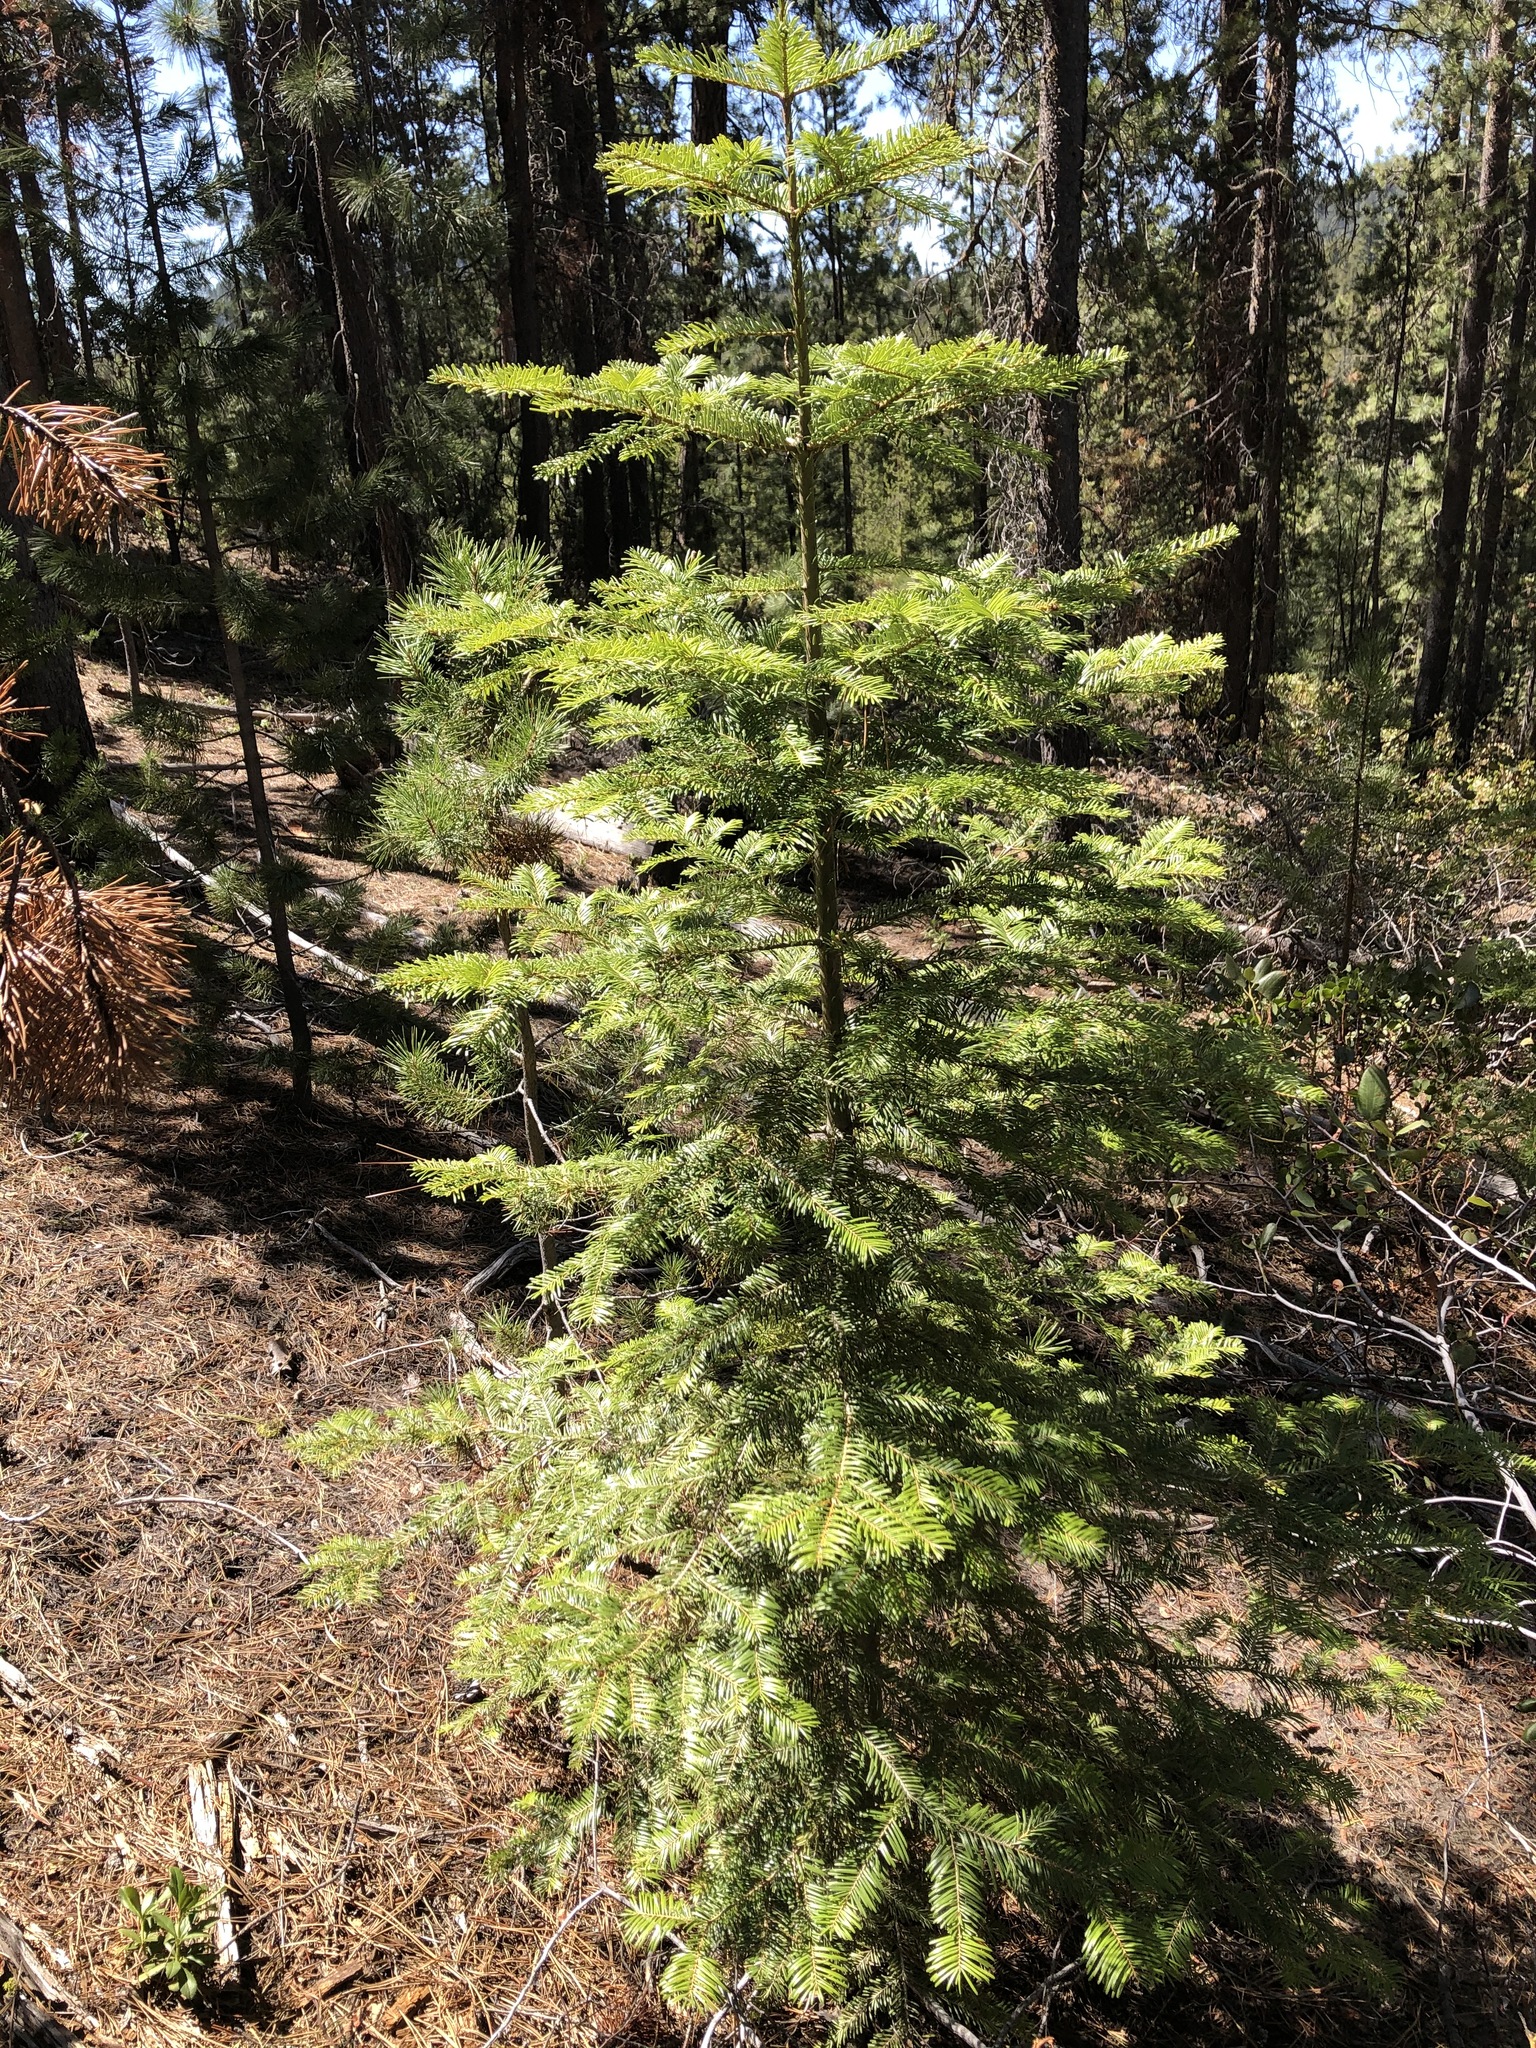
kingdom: Plantae
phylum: Tracheophyta
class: Pinopsida
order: Pinales
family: Pinaceae
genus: Abies
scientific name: Abies grandis
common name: Giant fir
